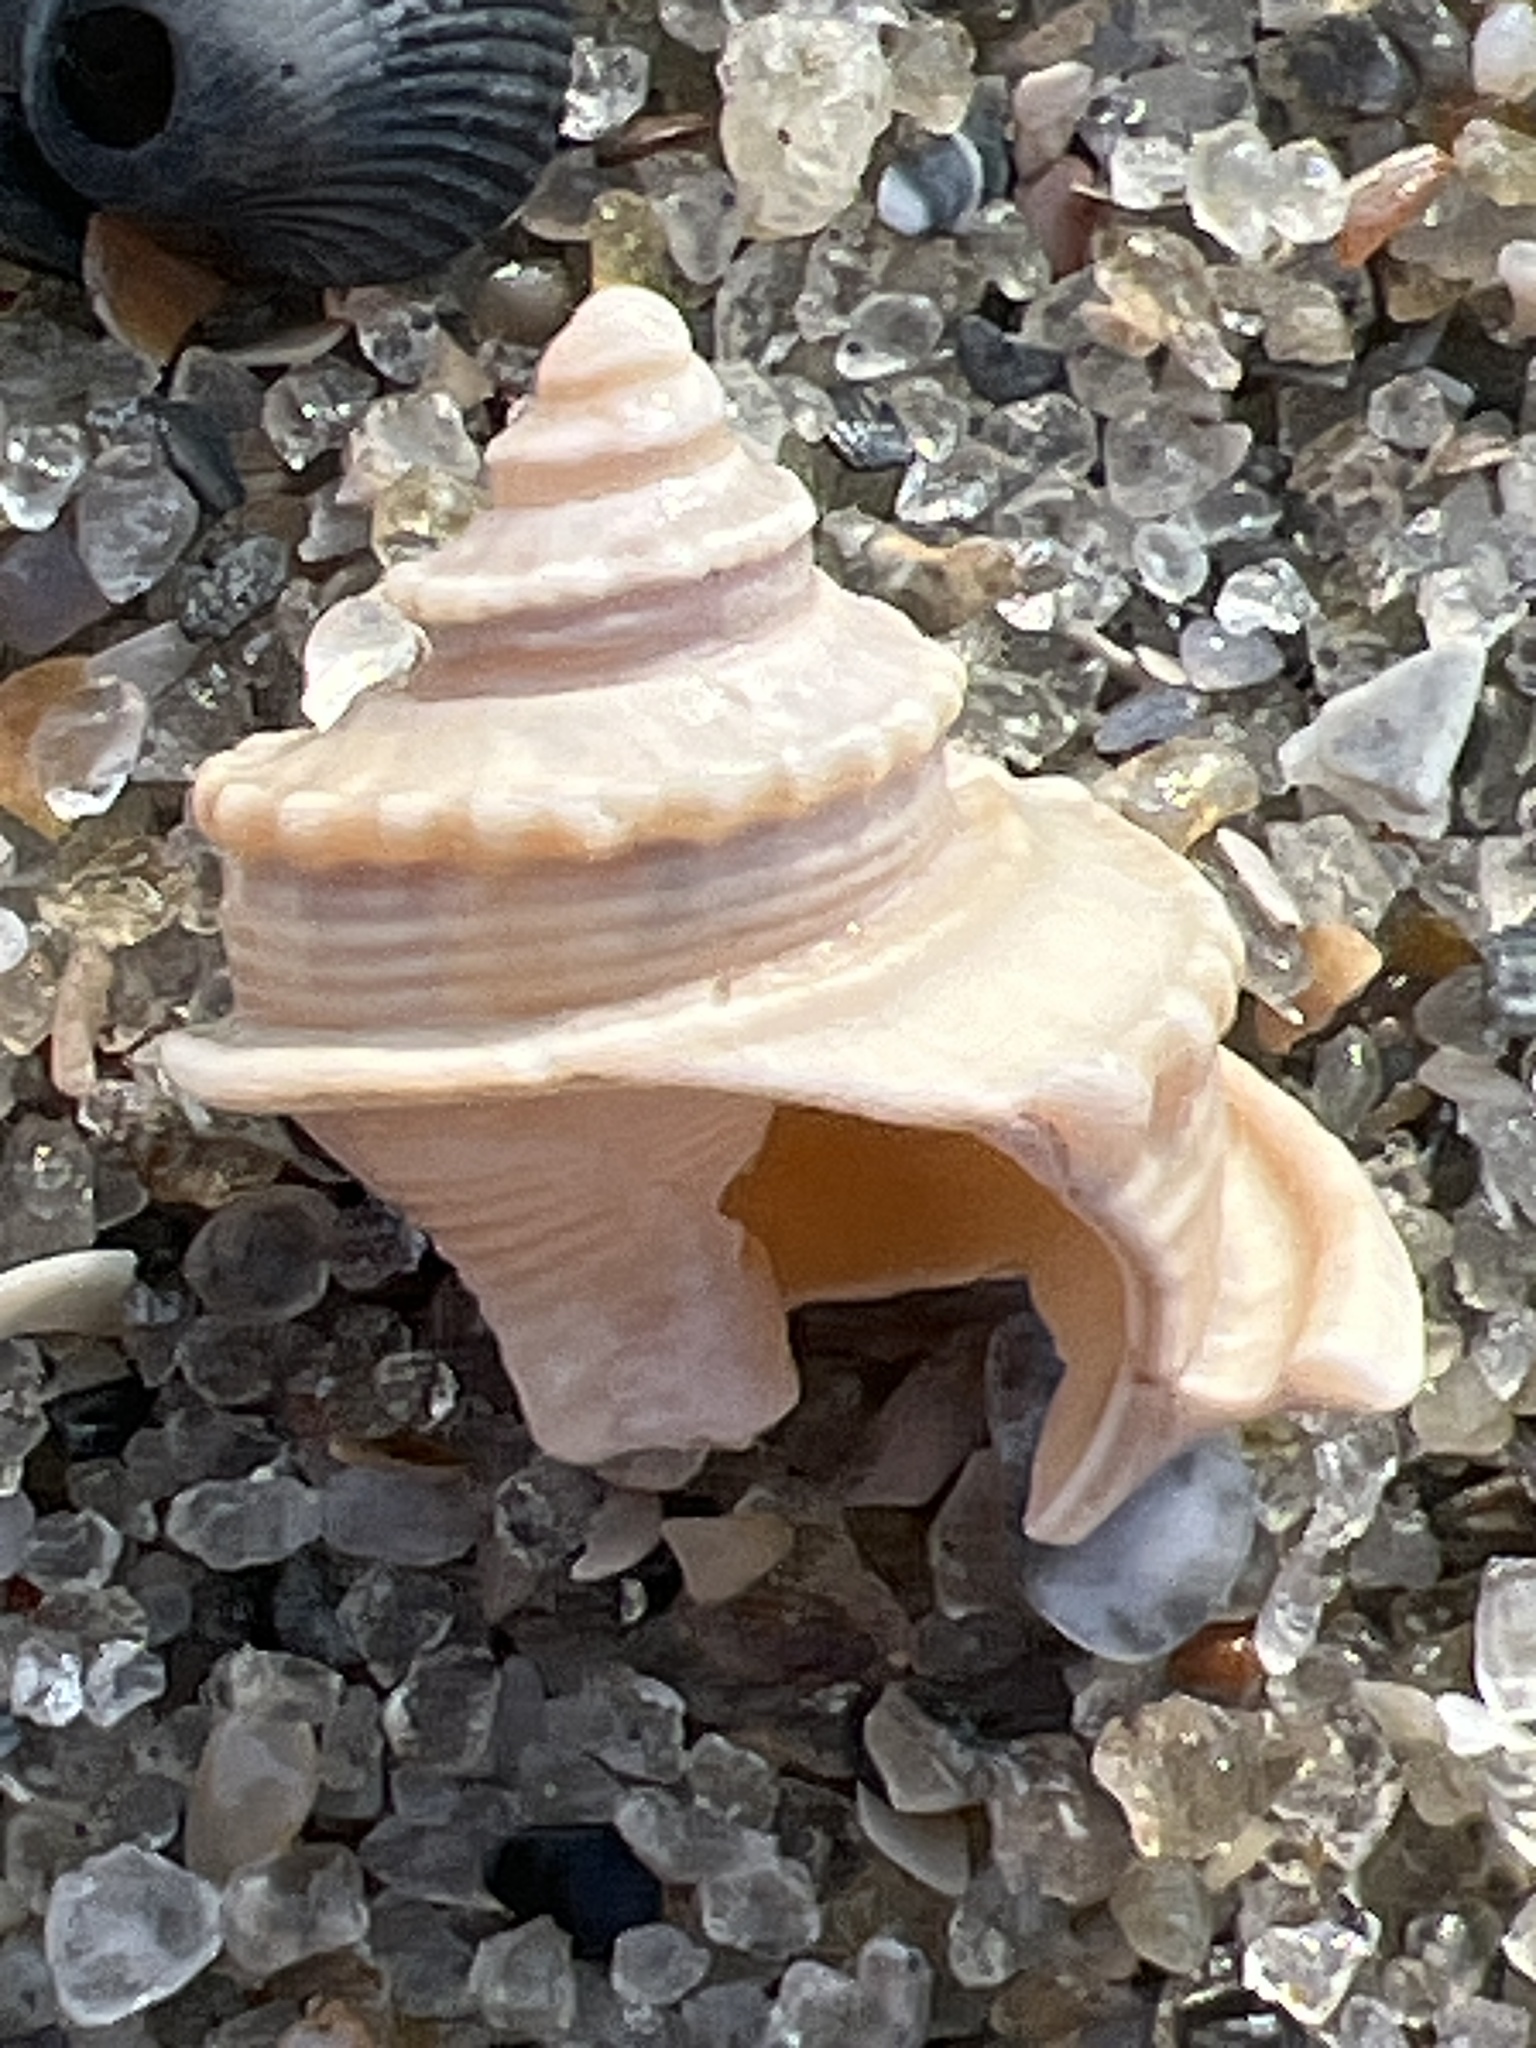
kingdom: Animalia
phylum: Mollusca
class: Gastropoda
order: Neogastropoda
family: Busyconidae
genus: Busycotypus
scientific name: Busycotypus canaliculatus
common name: Channeled whelk
